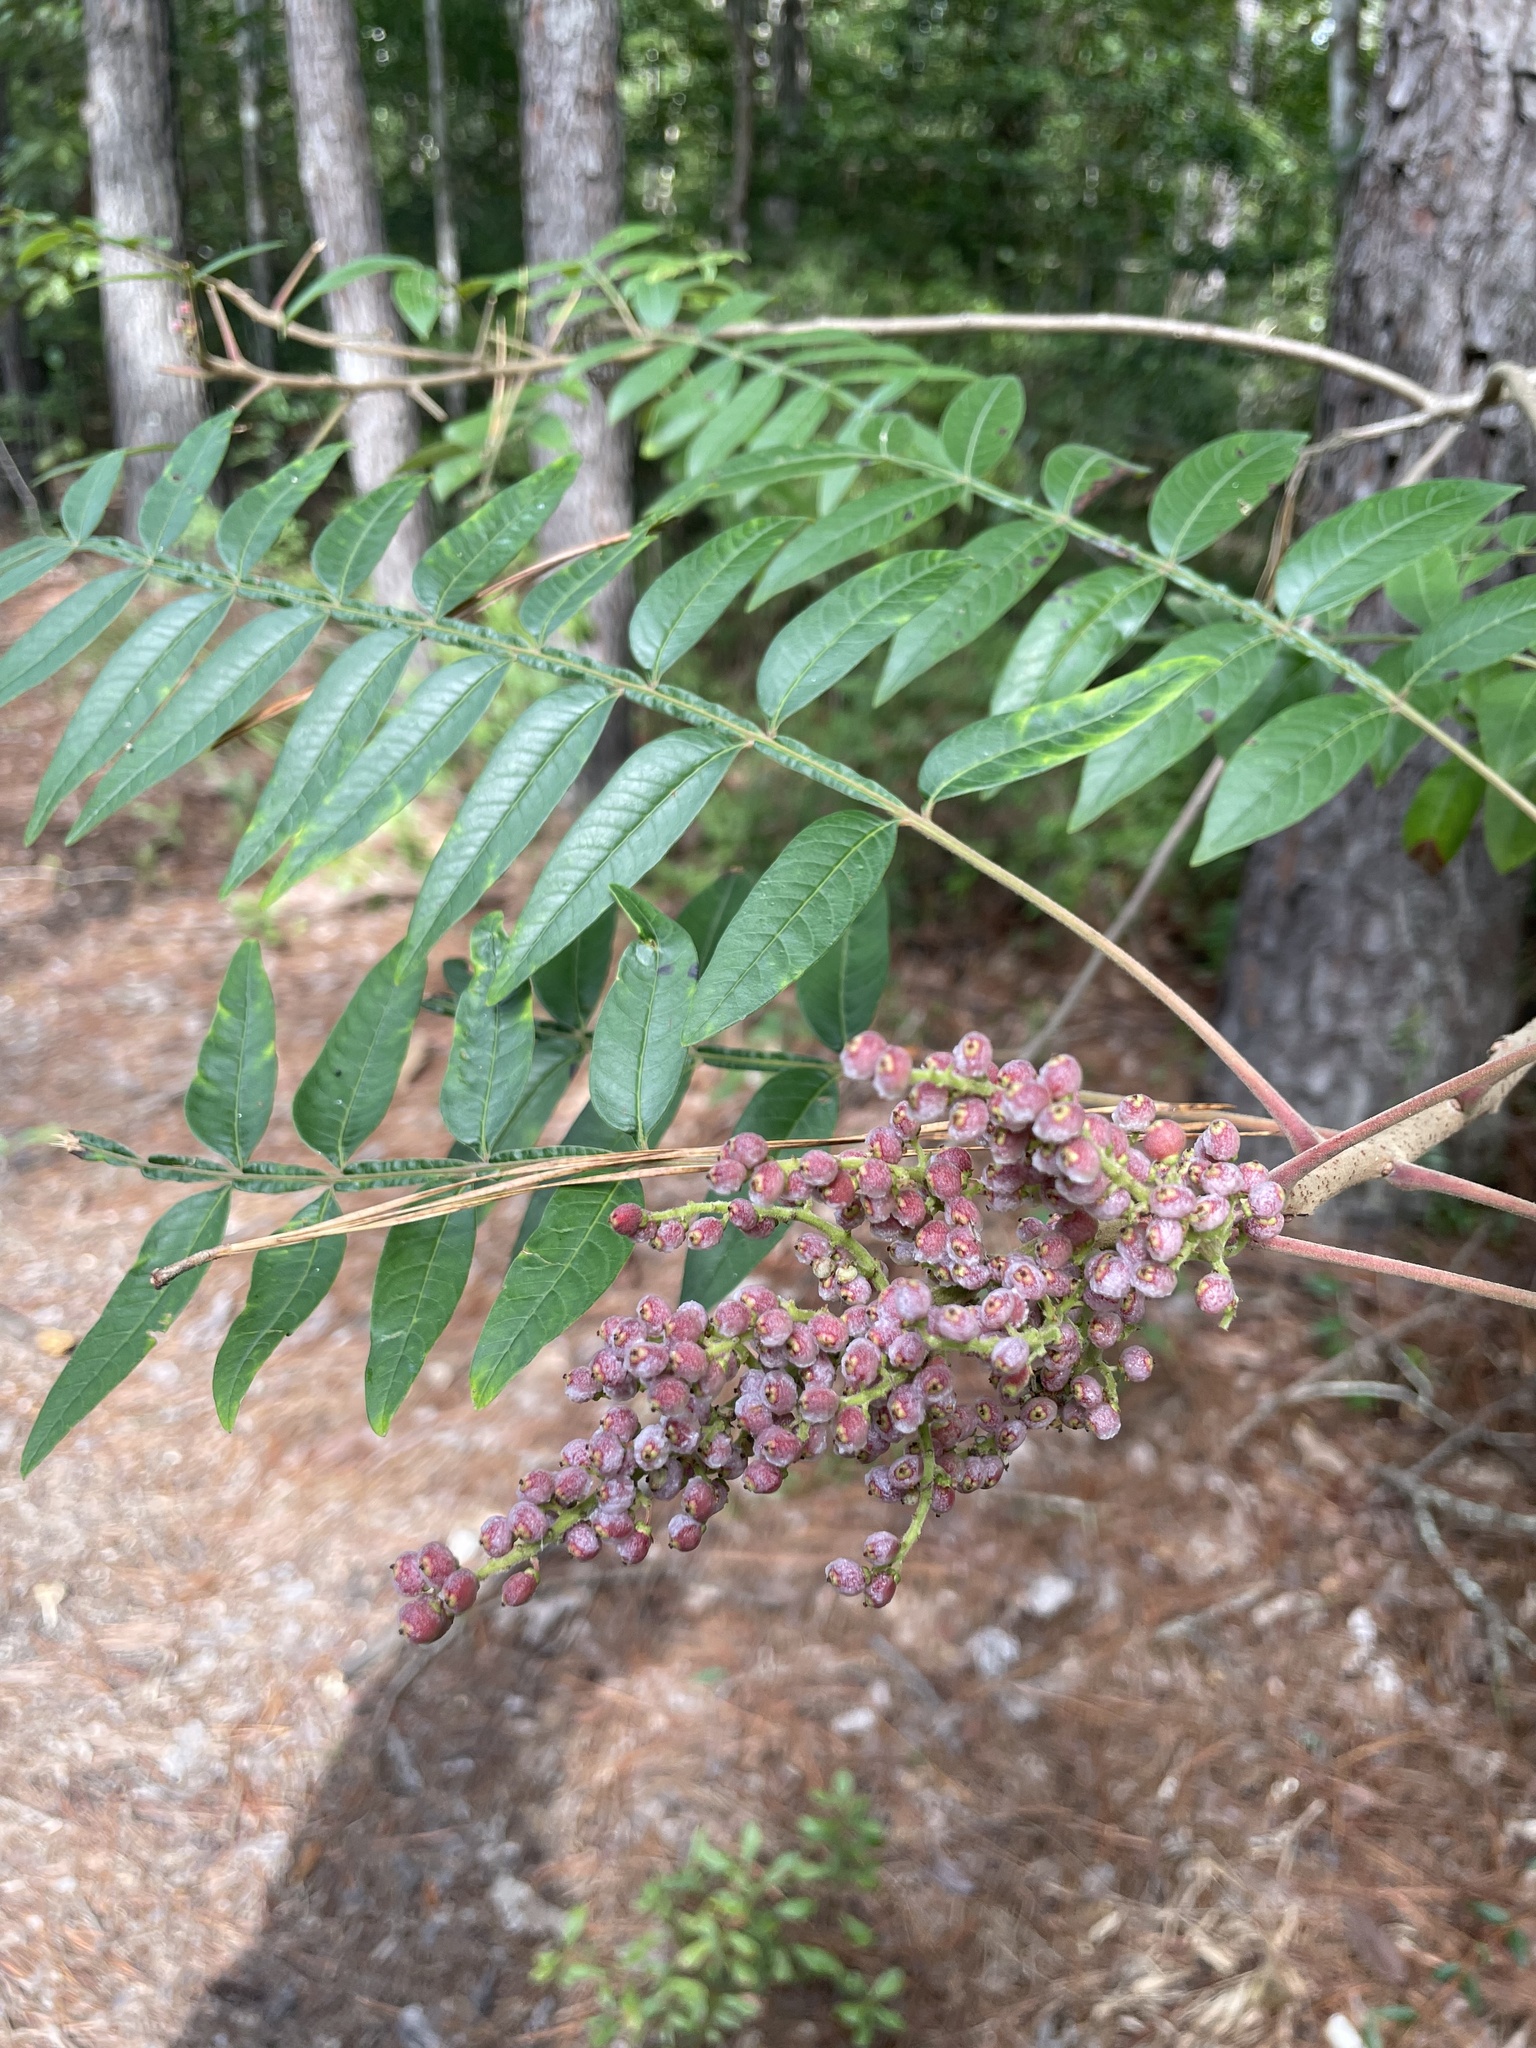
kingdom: Plantae
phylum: Tracheophyta
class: Magnoliopsida
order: Sapindales
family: Anacardiaceae
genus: Rhus
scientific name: Rhus copallina
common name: Shining sumac
